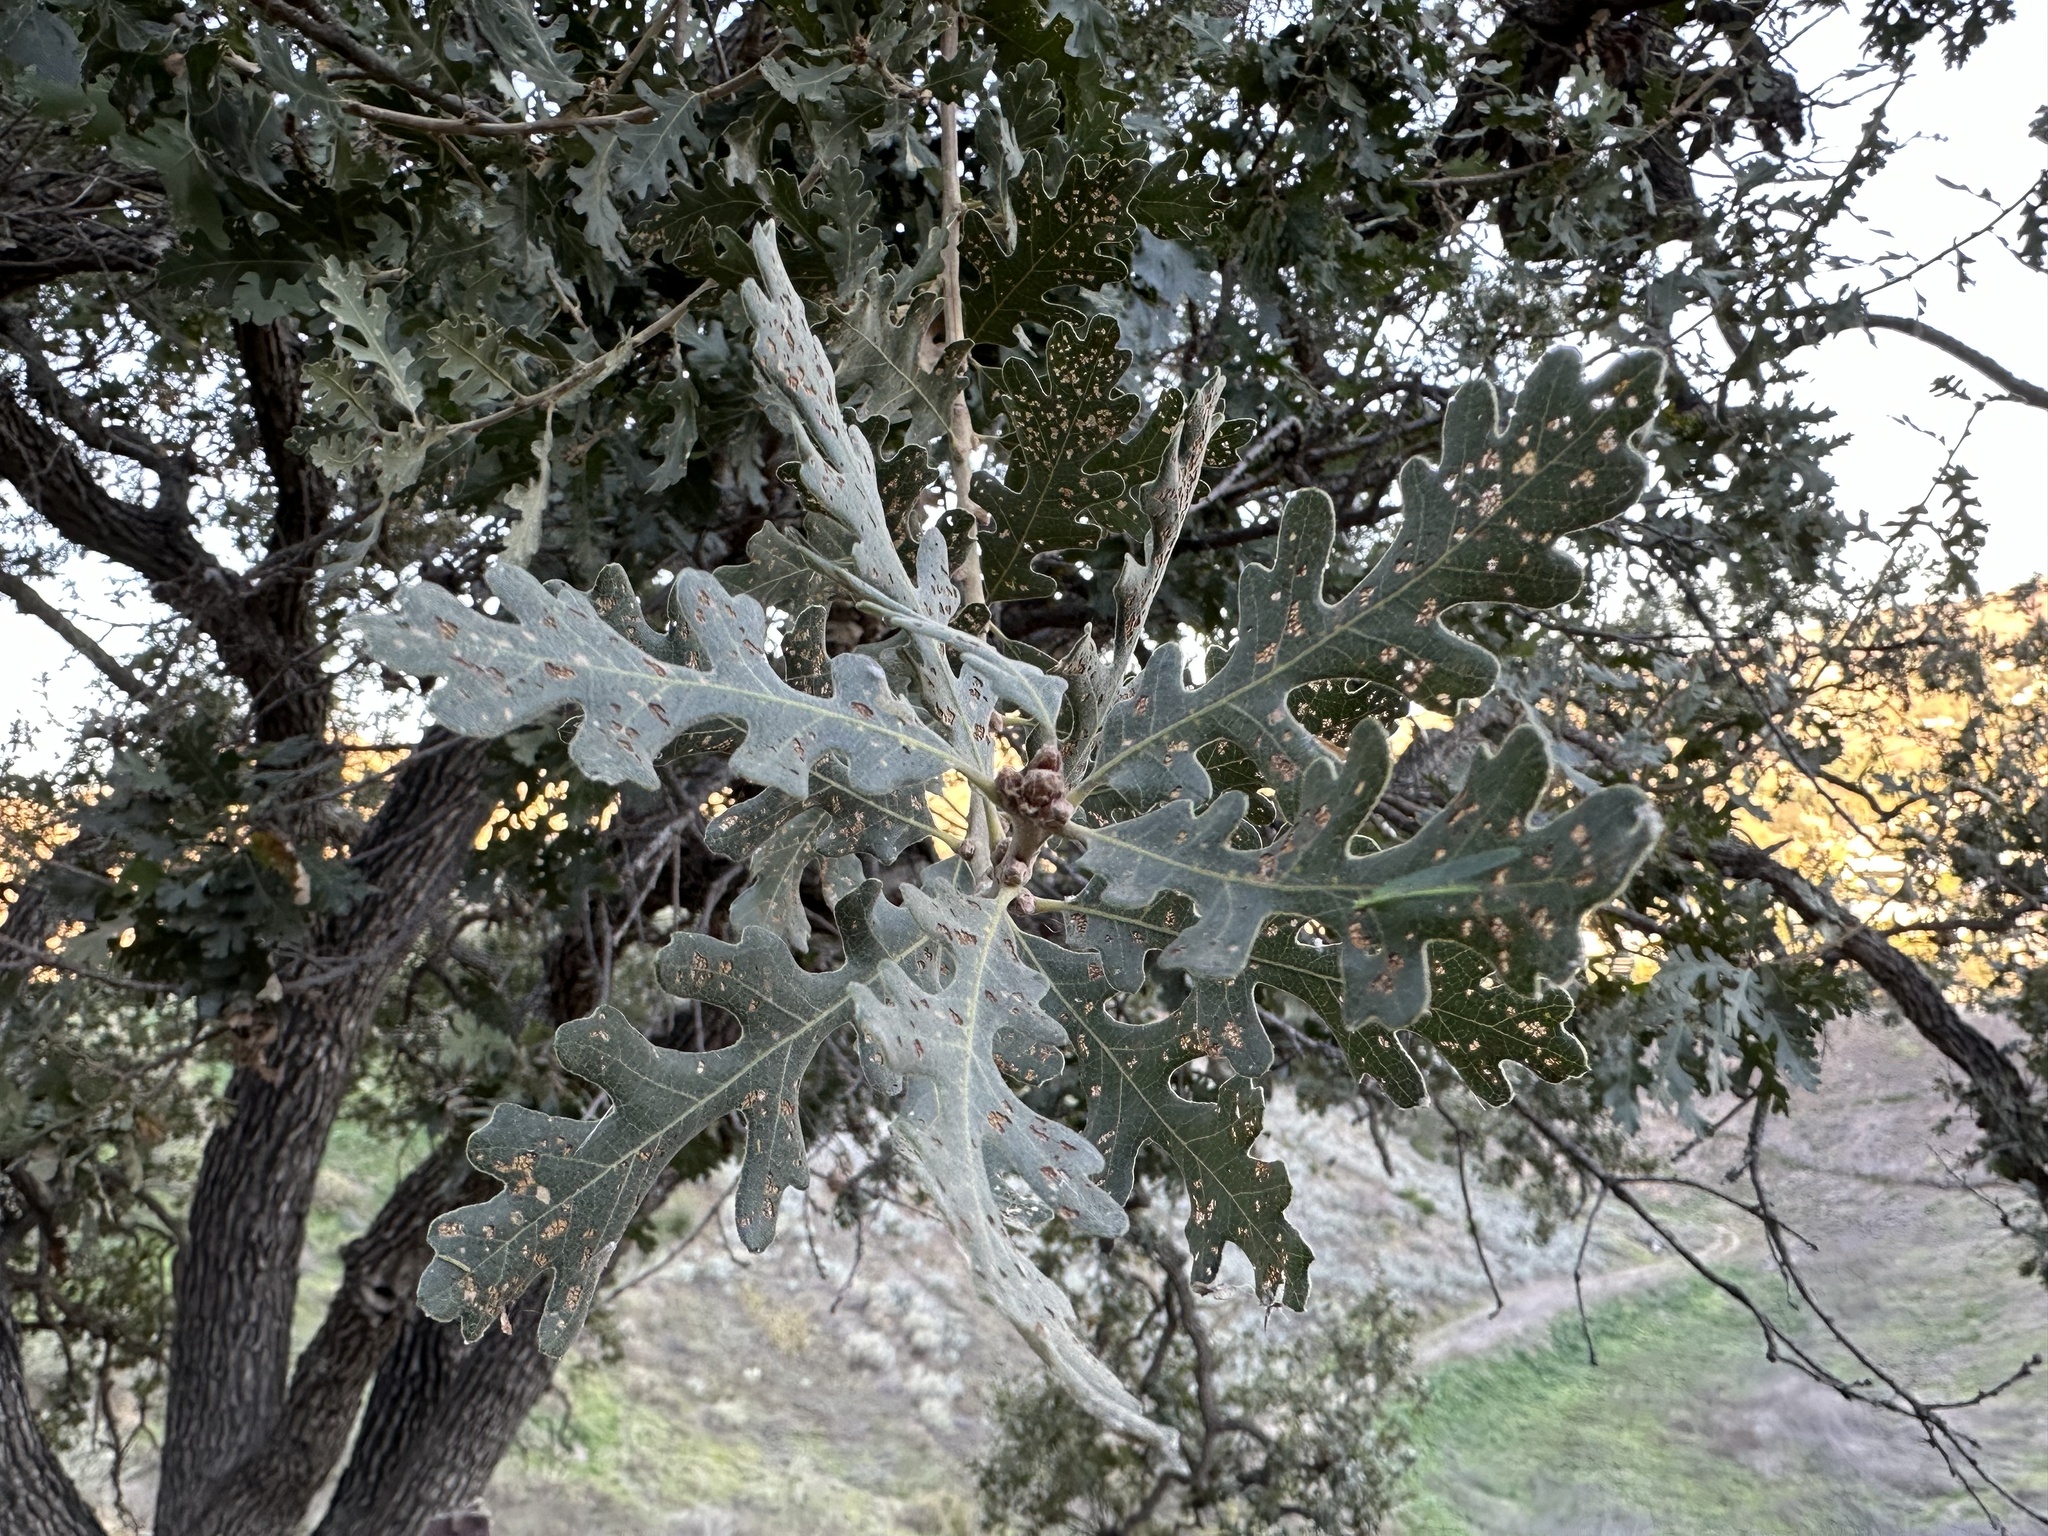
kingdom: Plantae
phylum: Tracheophyta
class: Magnoliopsida
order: Fagales
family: Fagaceae
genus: Quercus
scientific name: Quercus lobata
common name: Valley oak
